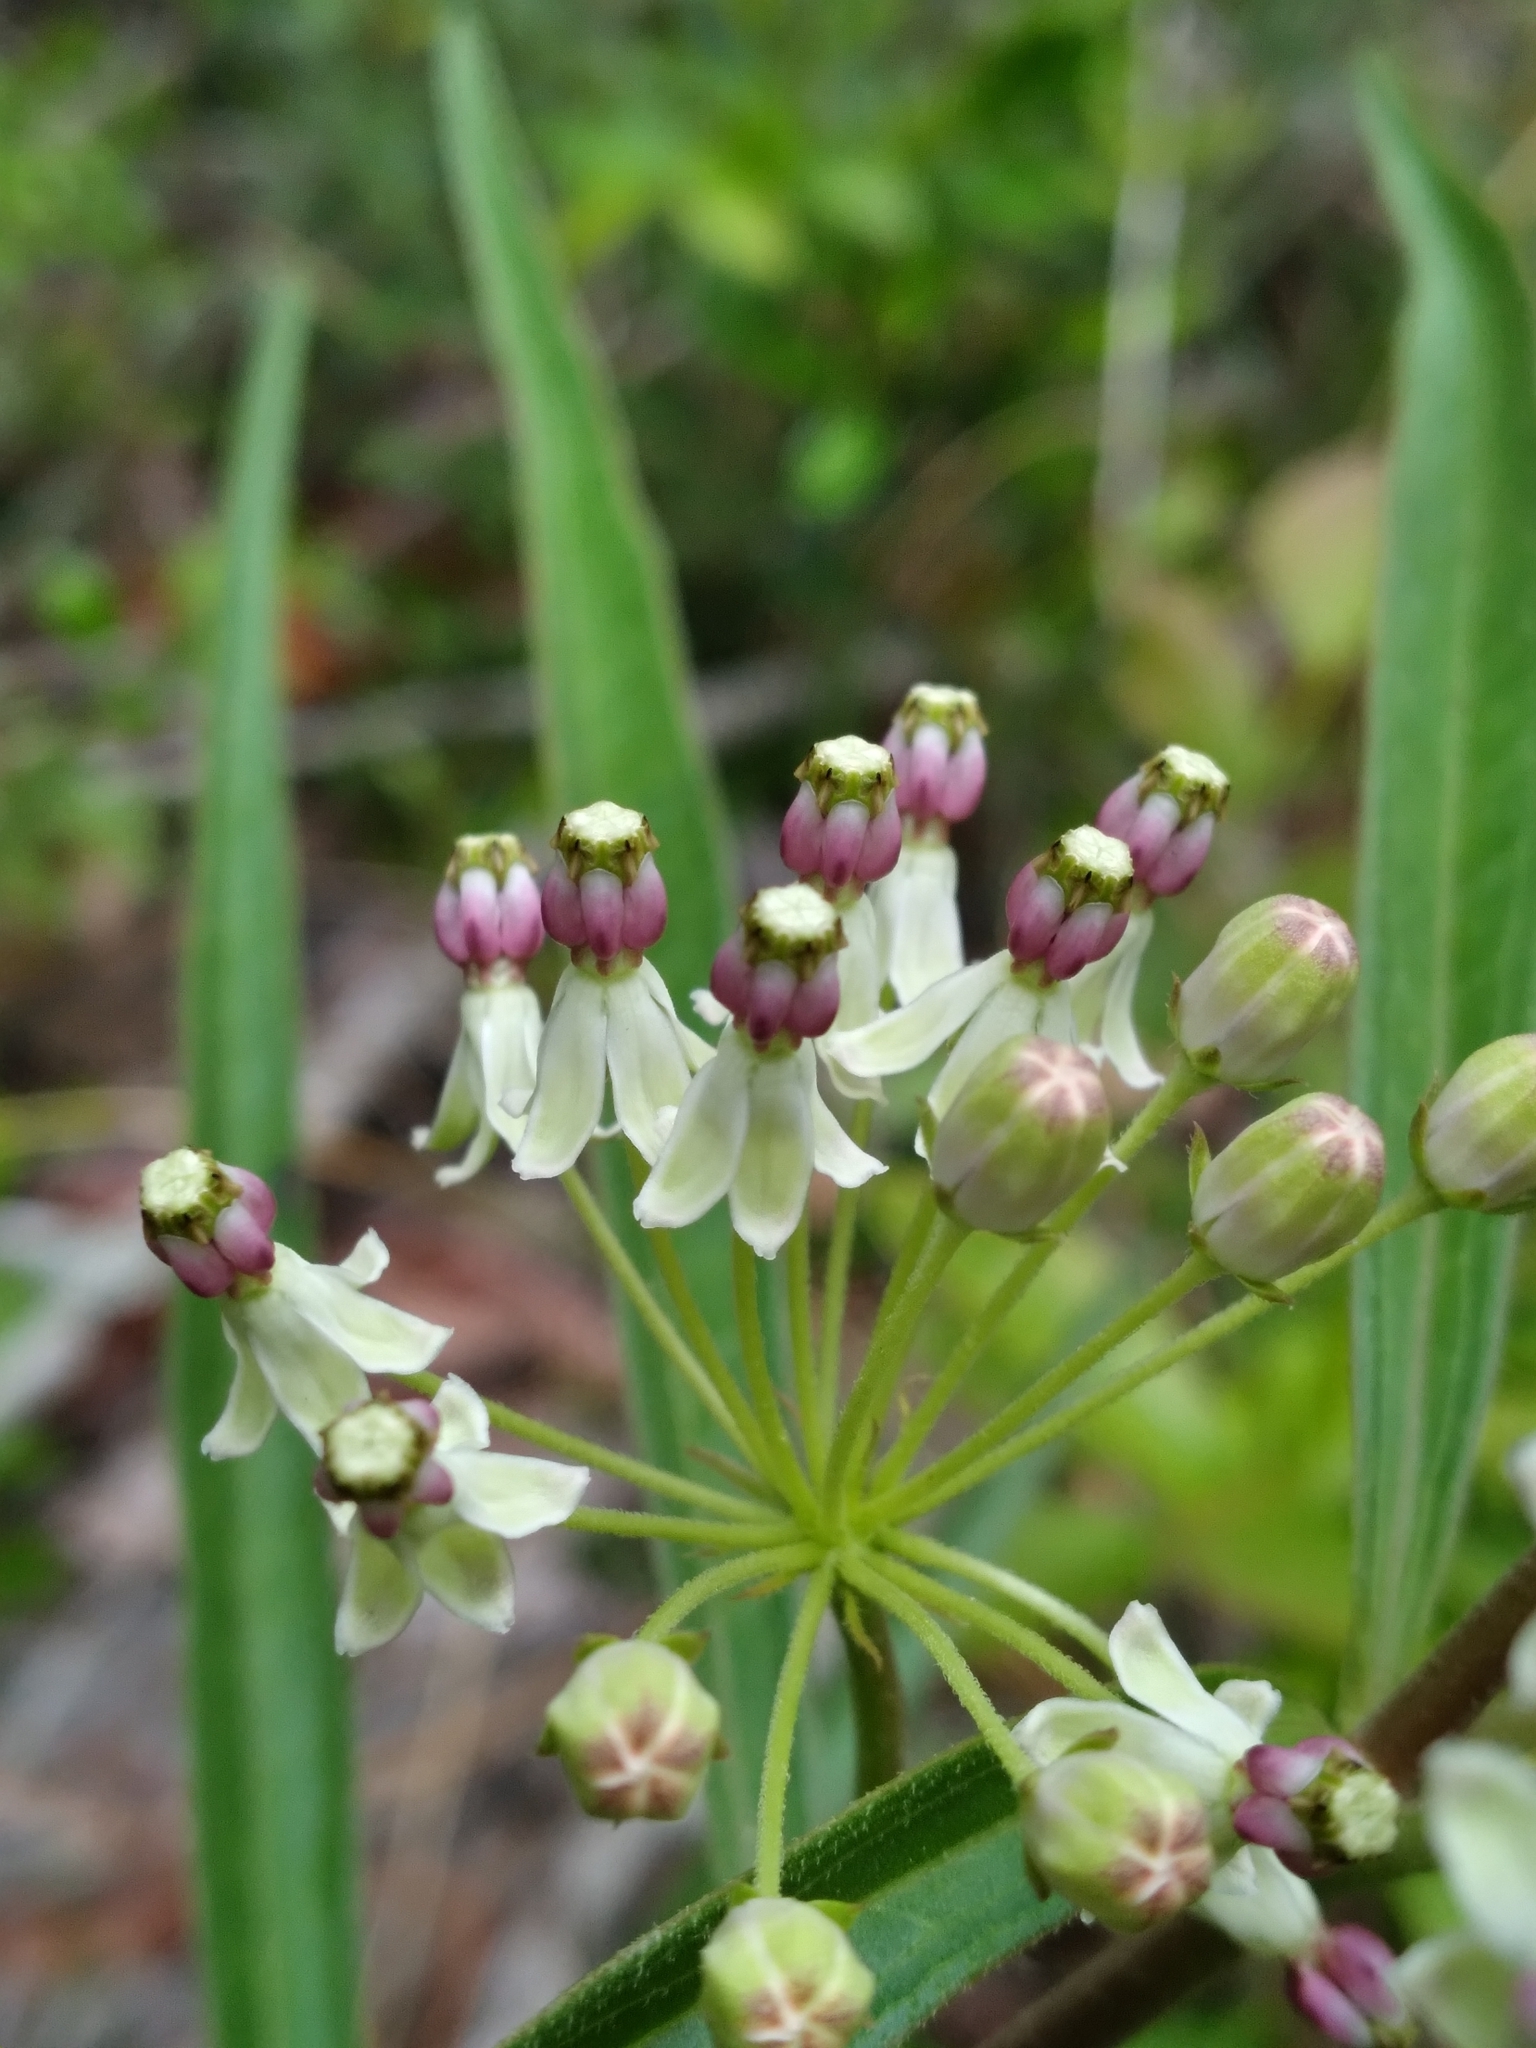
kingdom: Plantae
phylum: Tracheophyta
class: Magnoliopsida
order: Gentianales
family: Apocynaceae
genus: Asclepias
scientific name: Asclepias longifolia
